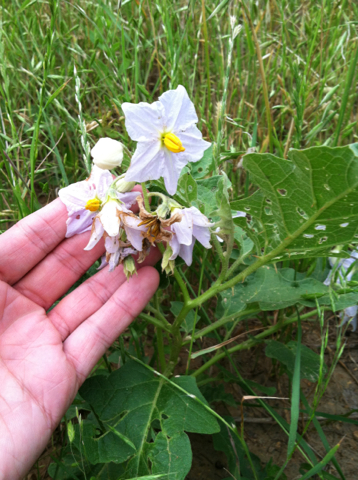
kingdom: Plantae
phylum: Tracheophyta
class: Magnoliopsida
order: Solanales
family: Solanaceae
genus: Solanum
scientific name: Solanum dimidiatum
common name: Carolina horse-nettle
